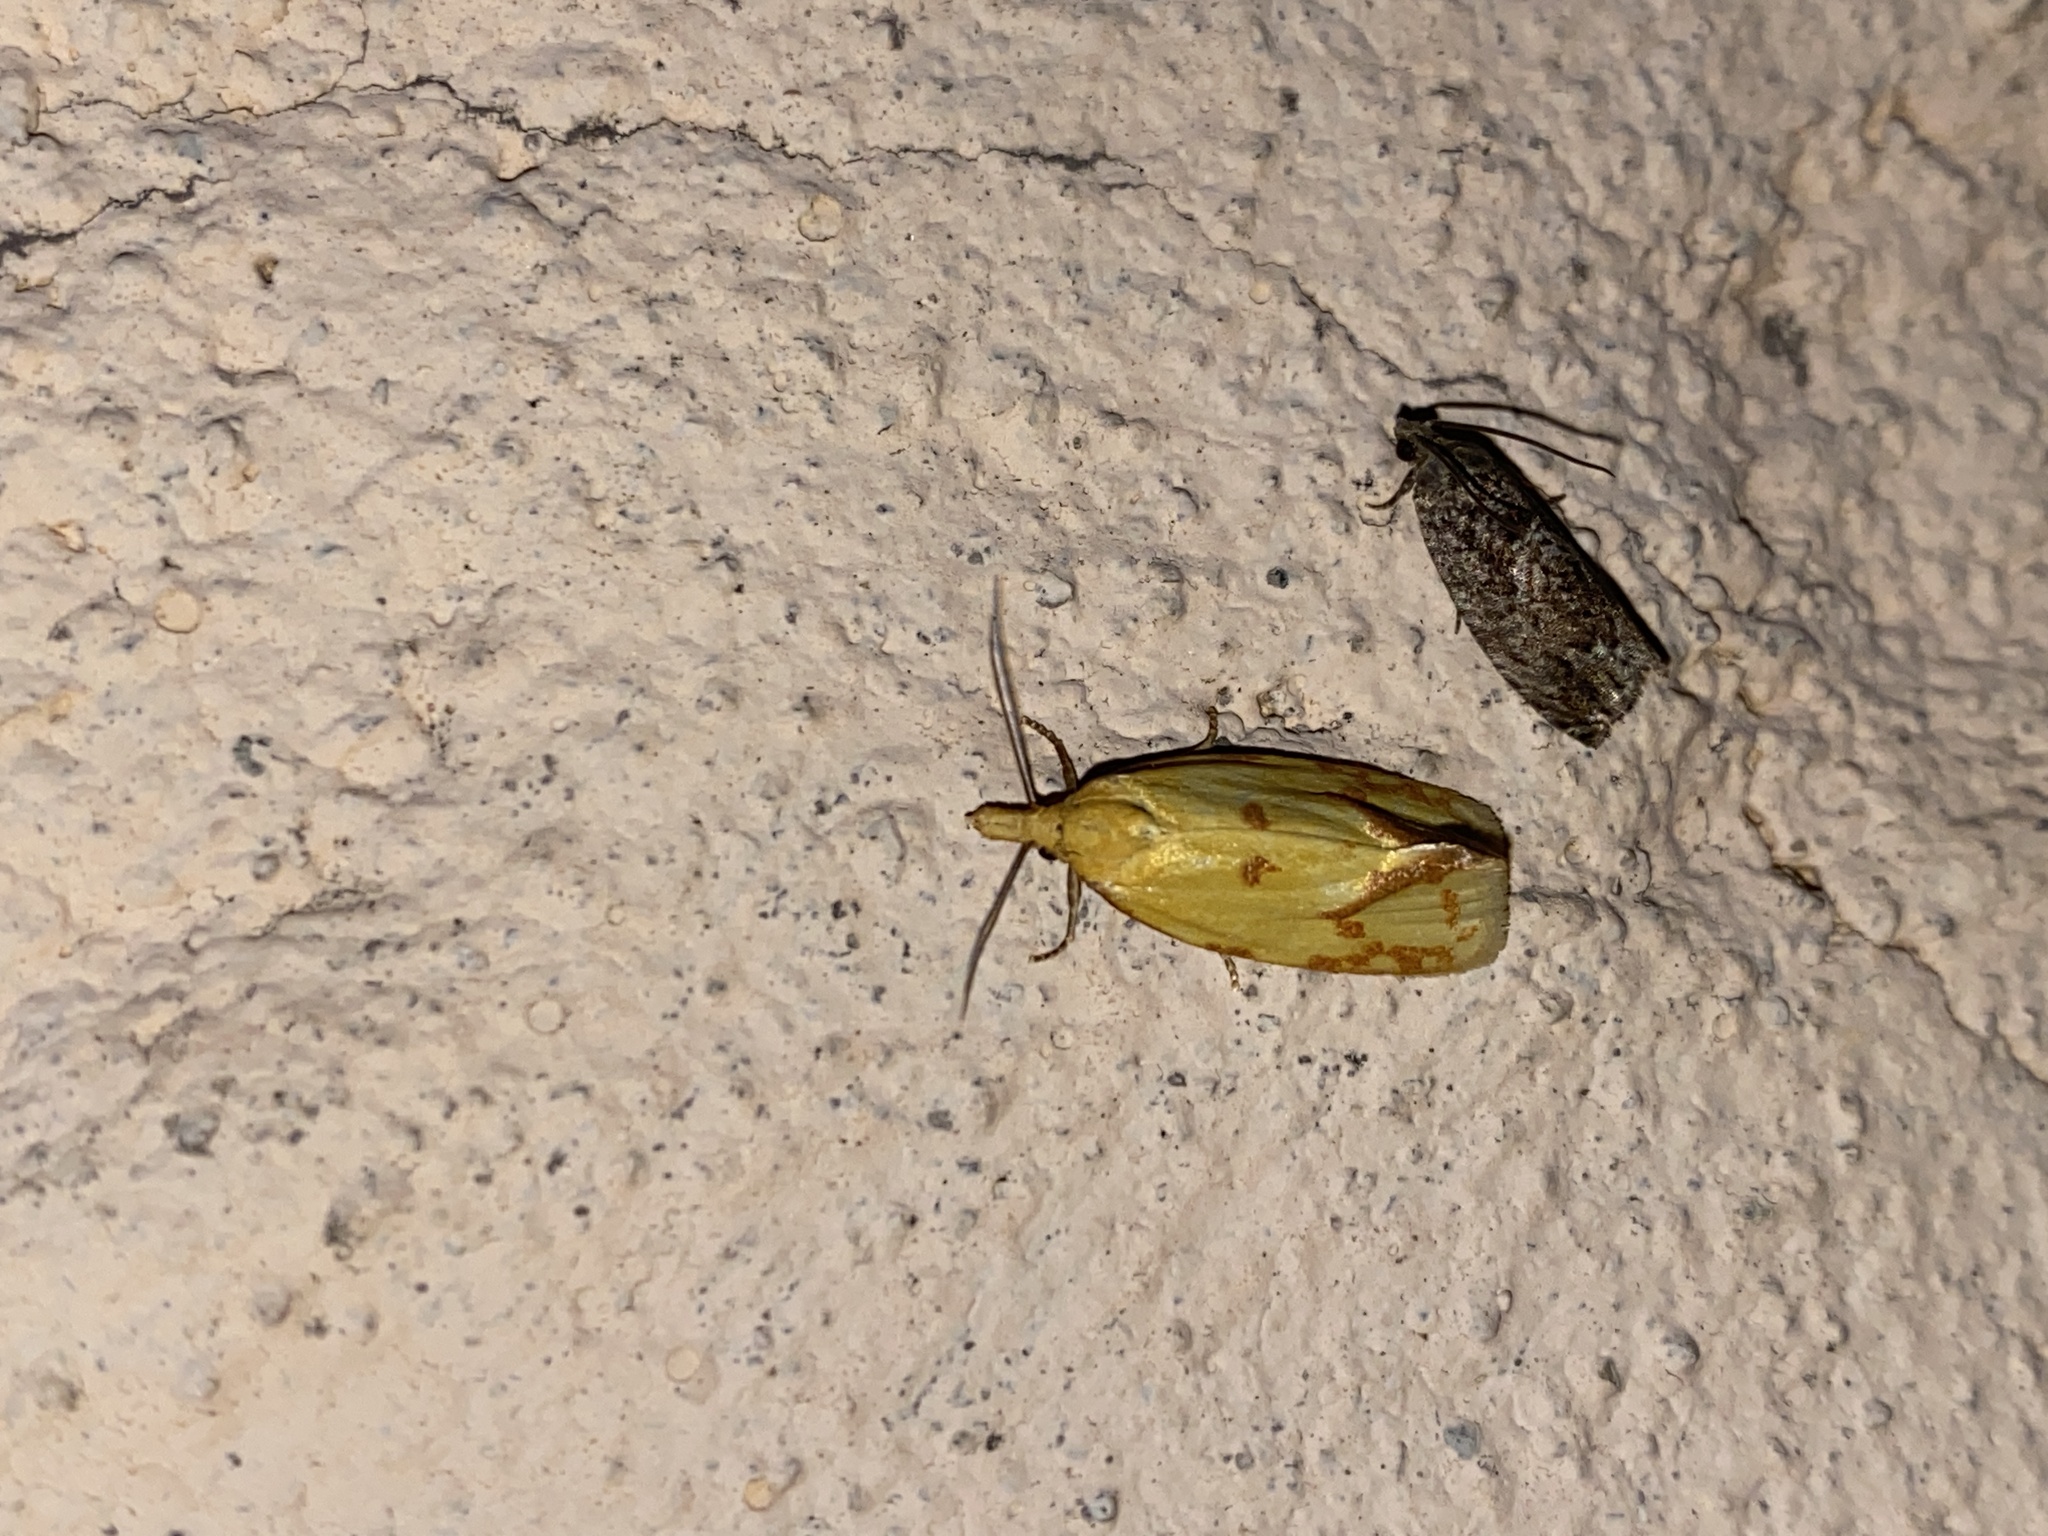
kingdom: Animalia
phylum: Arthropoda
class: Insecta
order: Lepidoptera
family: Tortricidae
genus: Agapeta
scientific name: Agapeta hamana
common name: Common yellow conch
